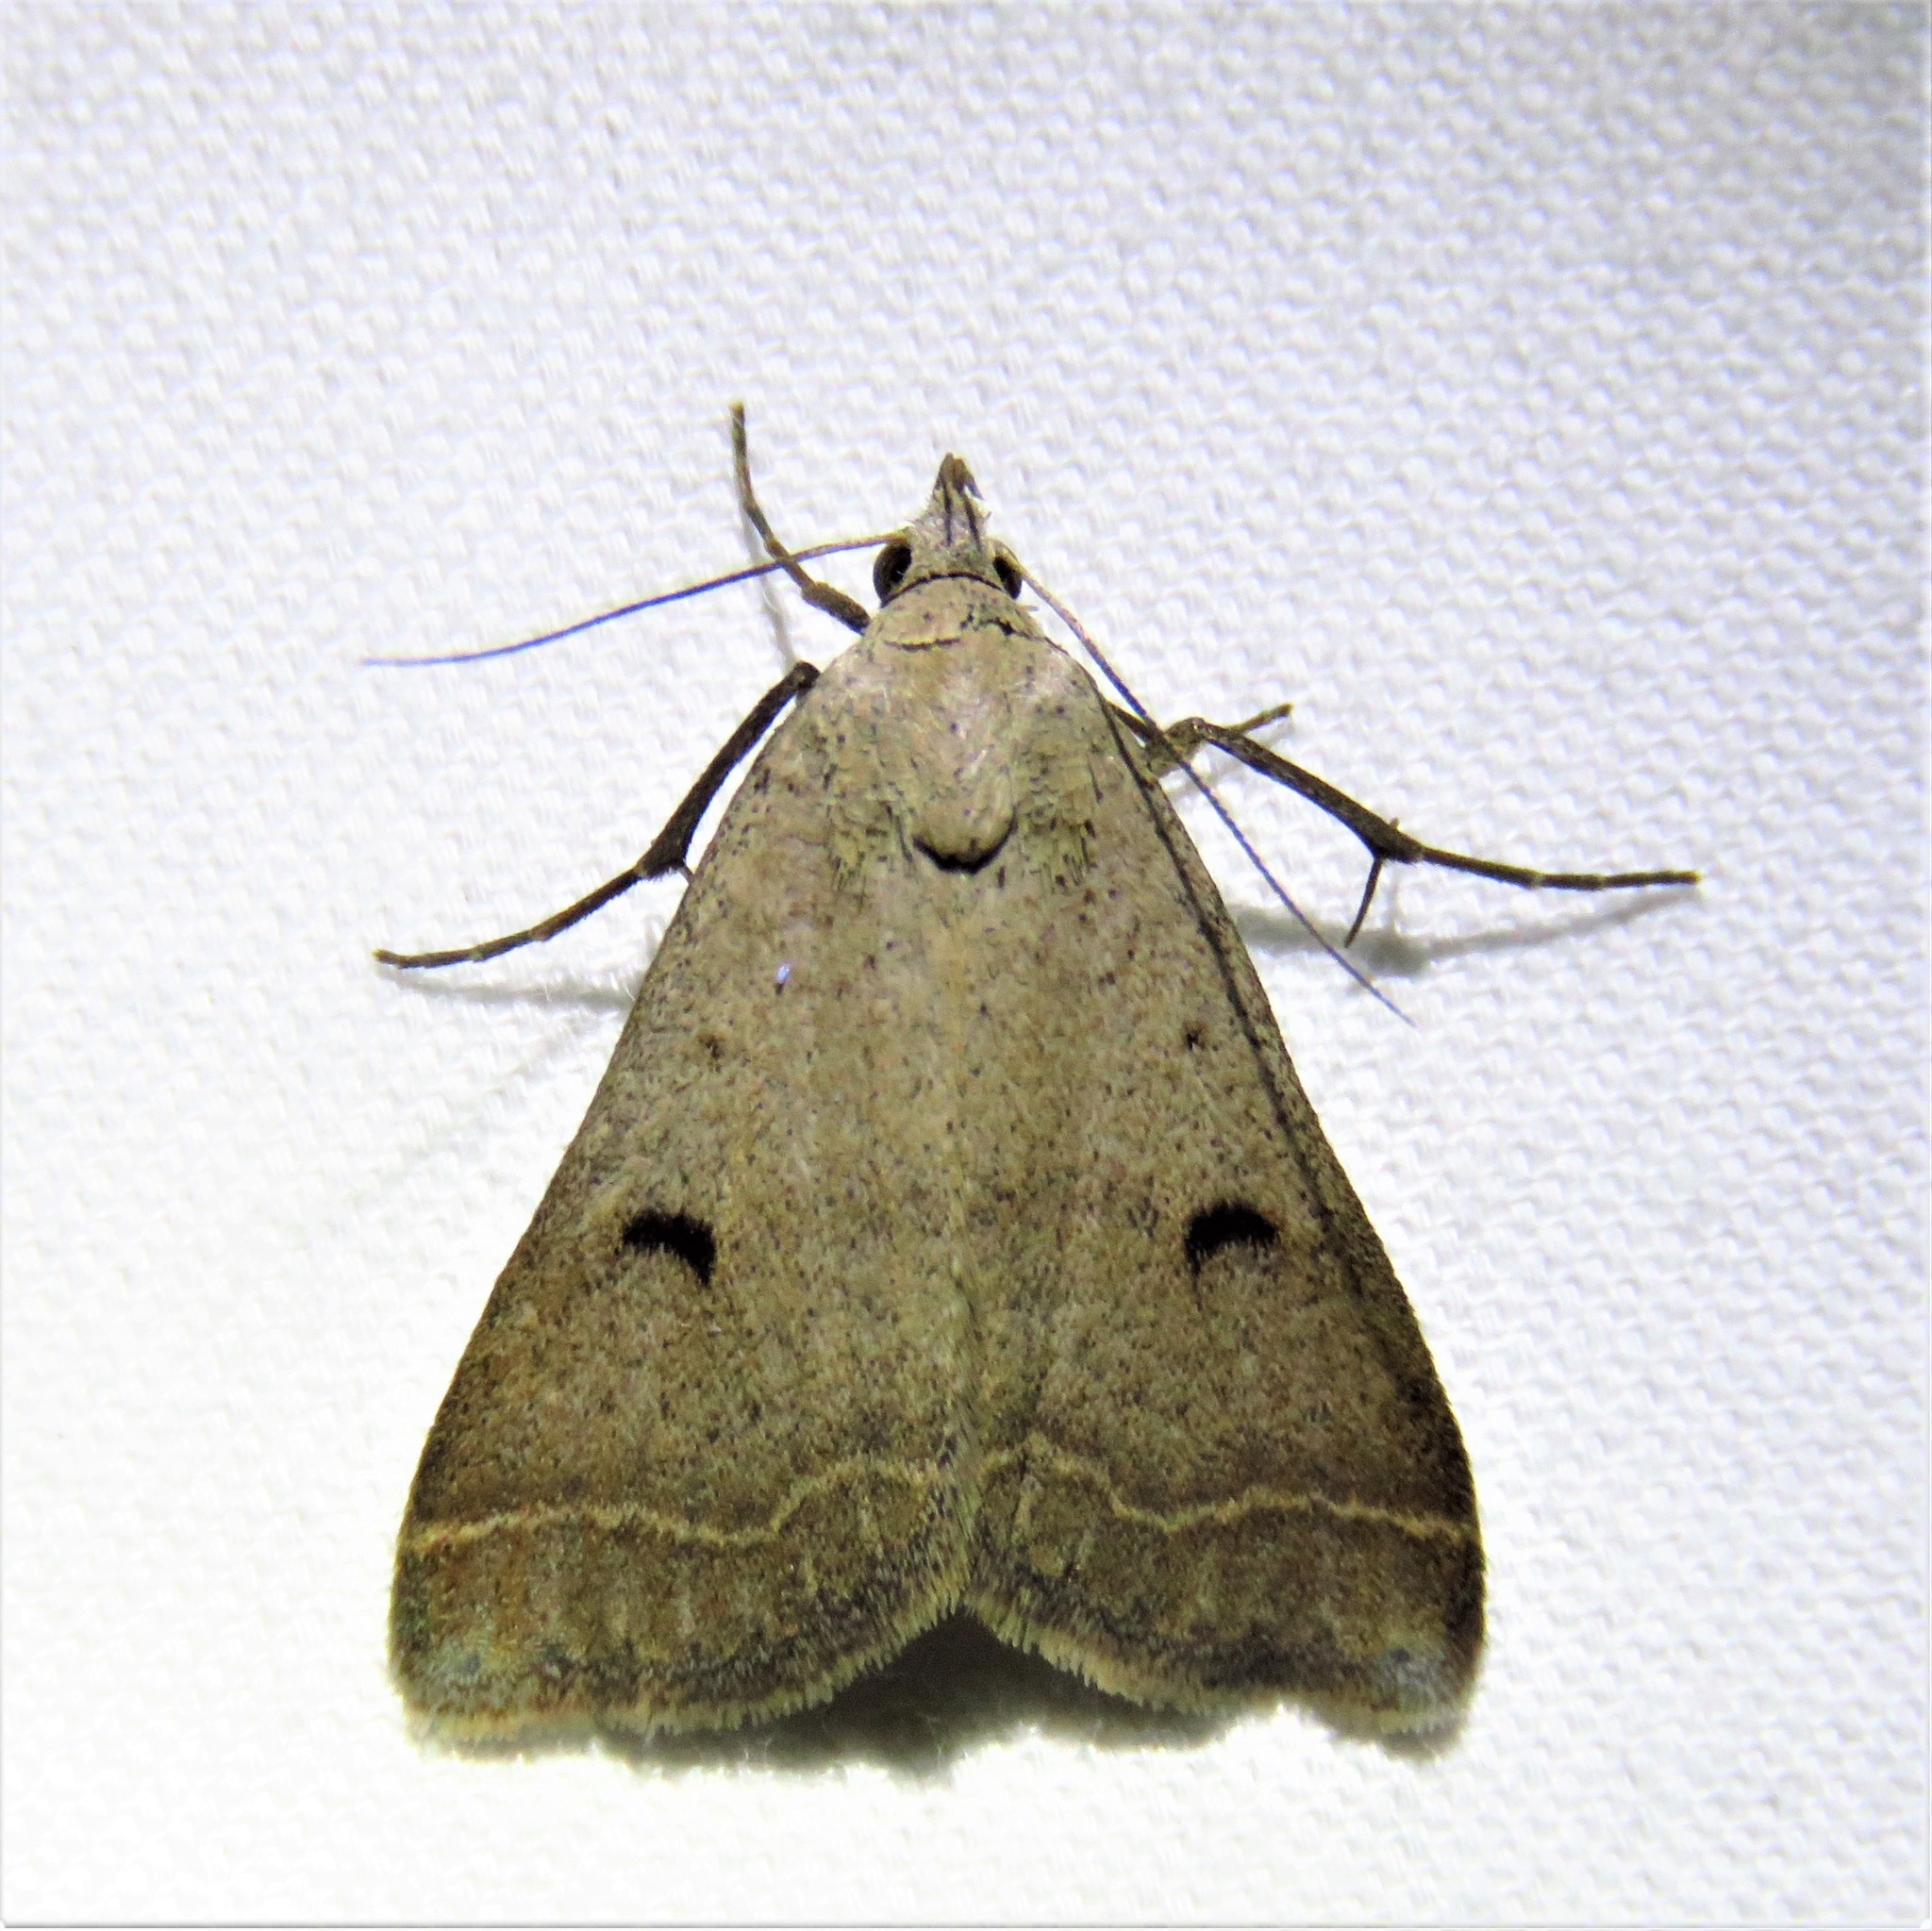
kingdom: Animalia
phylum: Arthropoda
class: Insecta
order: Lepidoptera
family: Erebidae
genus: Bleptina
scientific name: Bleptina caradrinalis
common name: Bent-winged owlet
